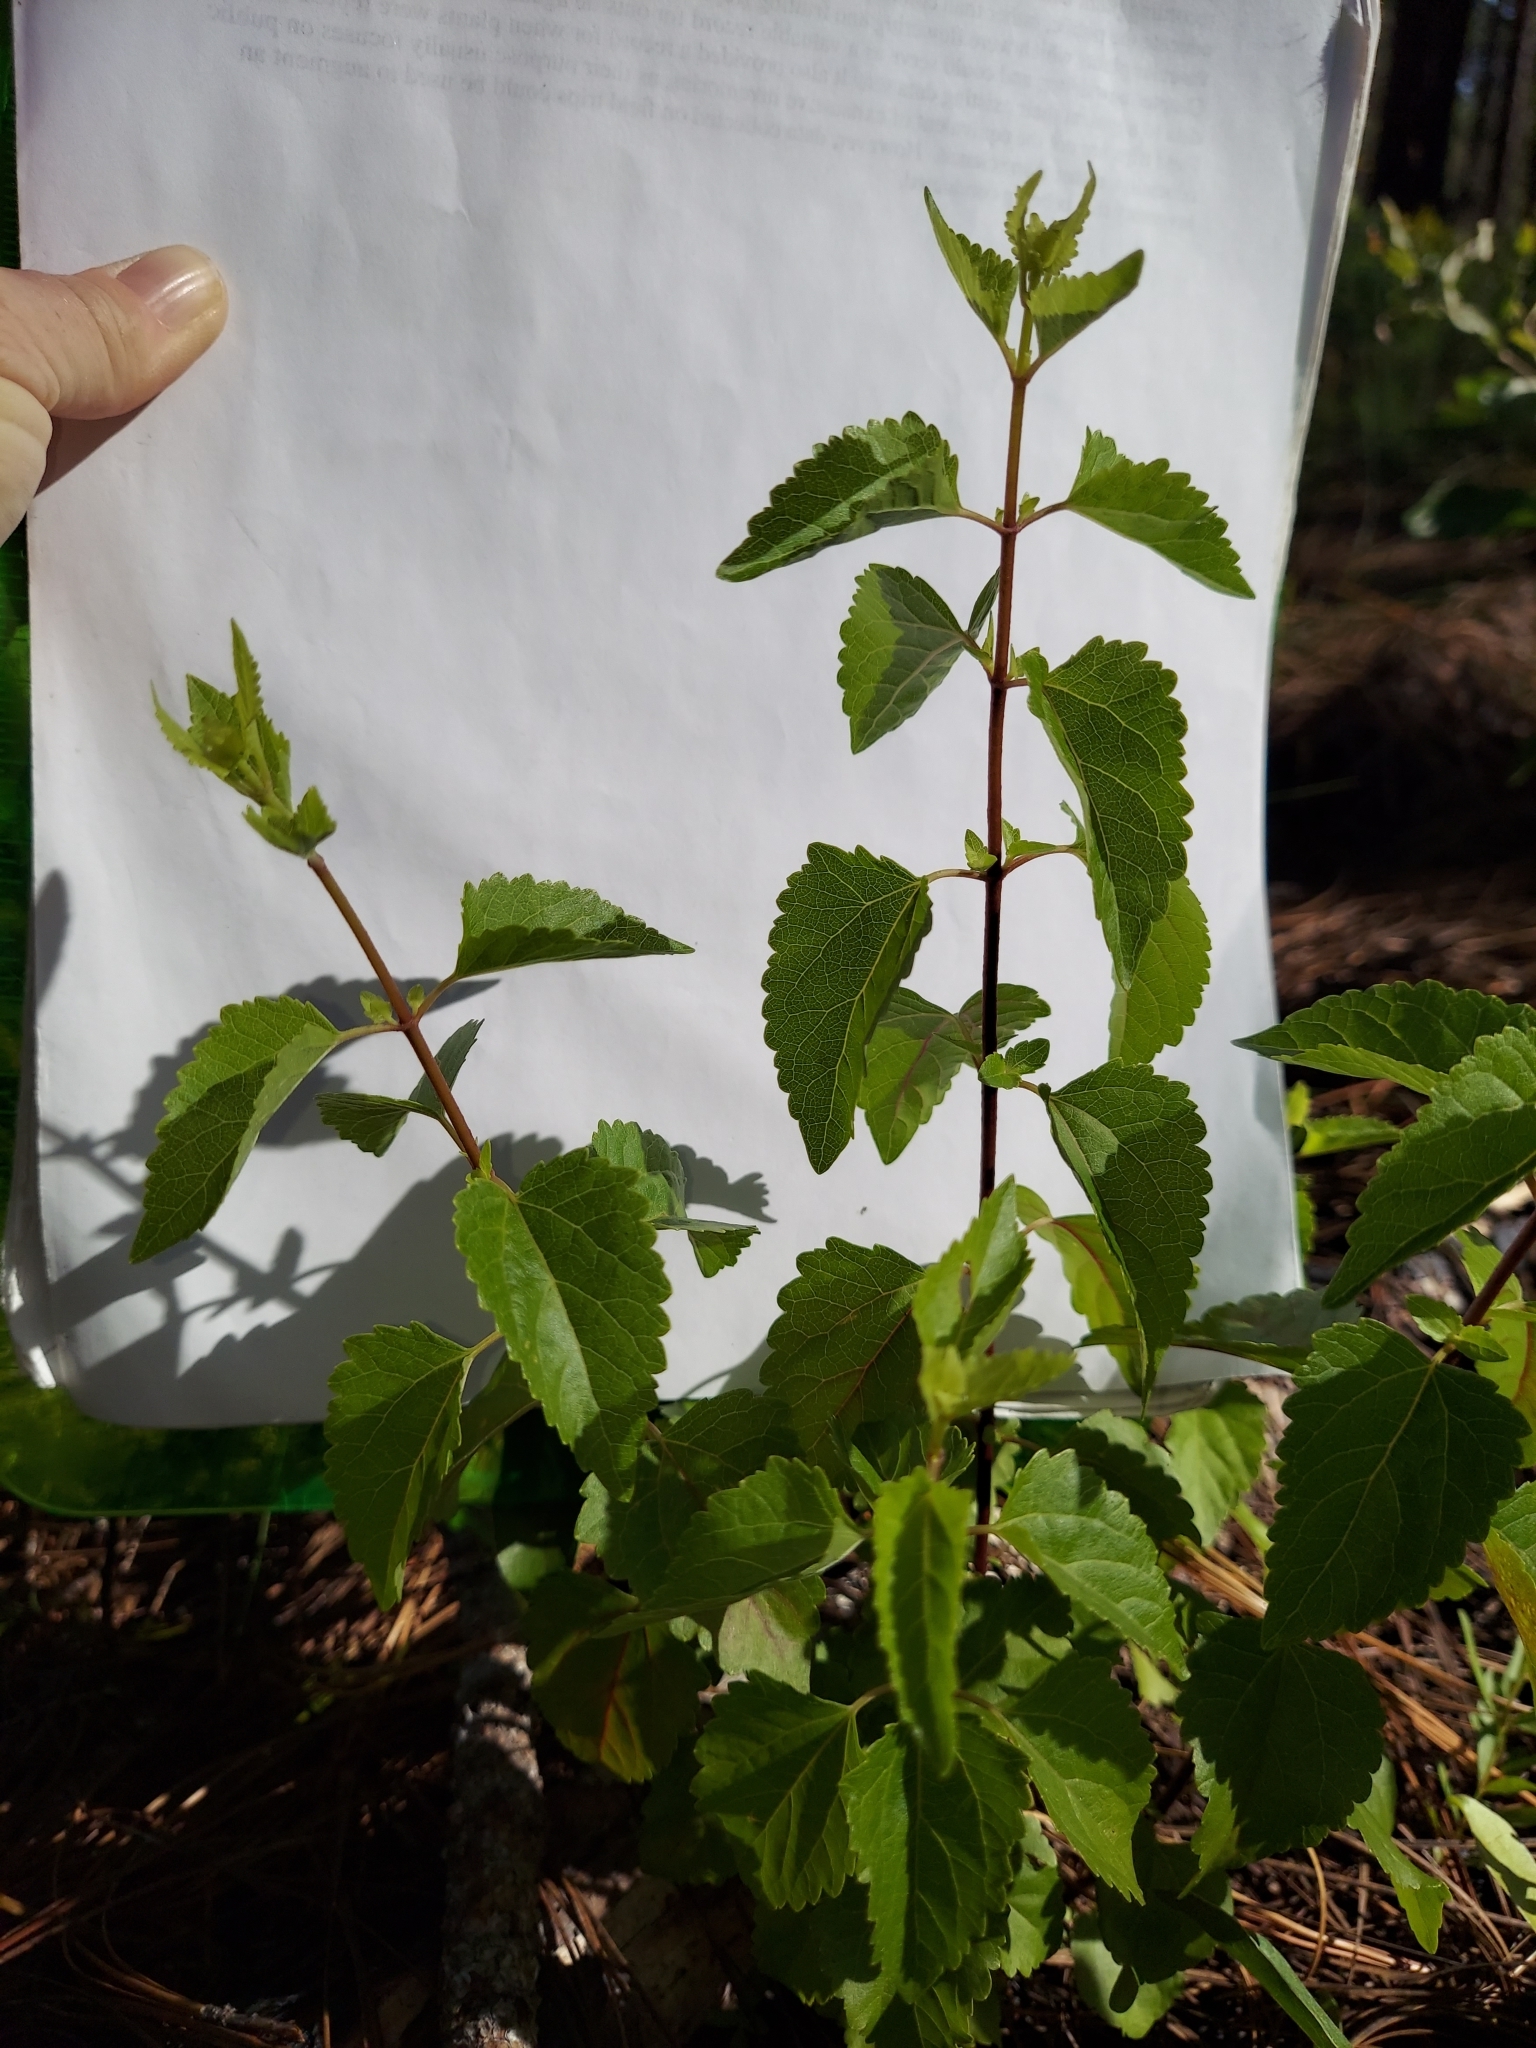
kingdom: Plantae
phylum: Tracheophyta
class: Magnoliopsida
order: Asterales
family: Asteraceae
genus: Ageratina
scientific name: Ageratina jucunda
